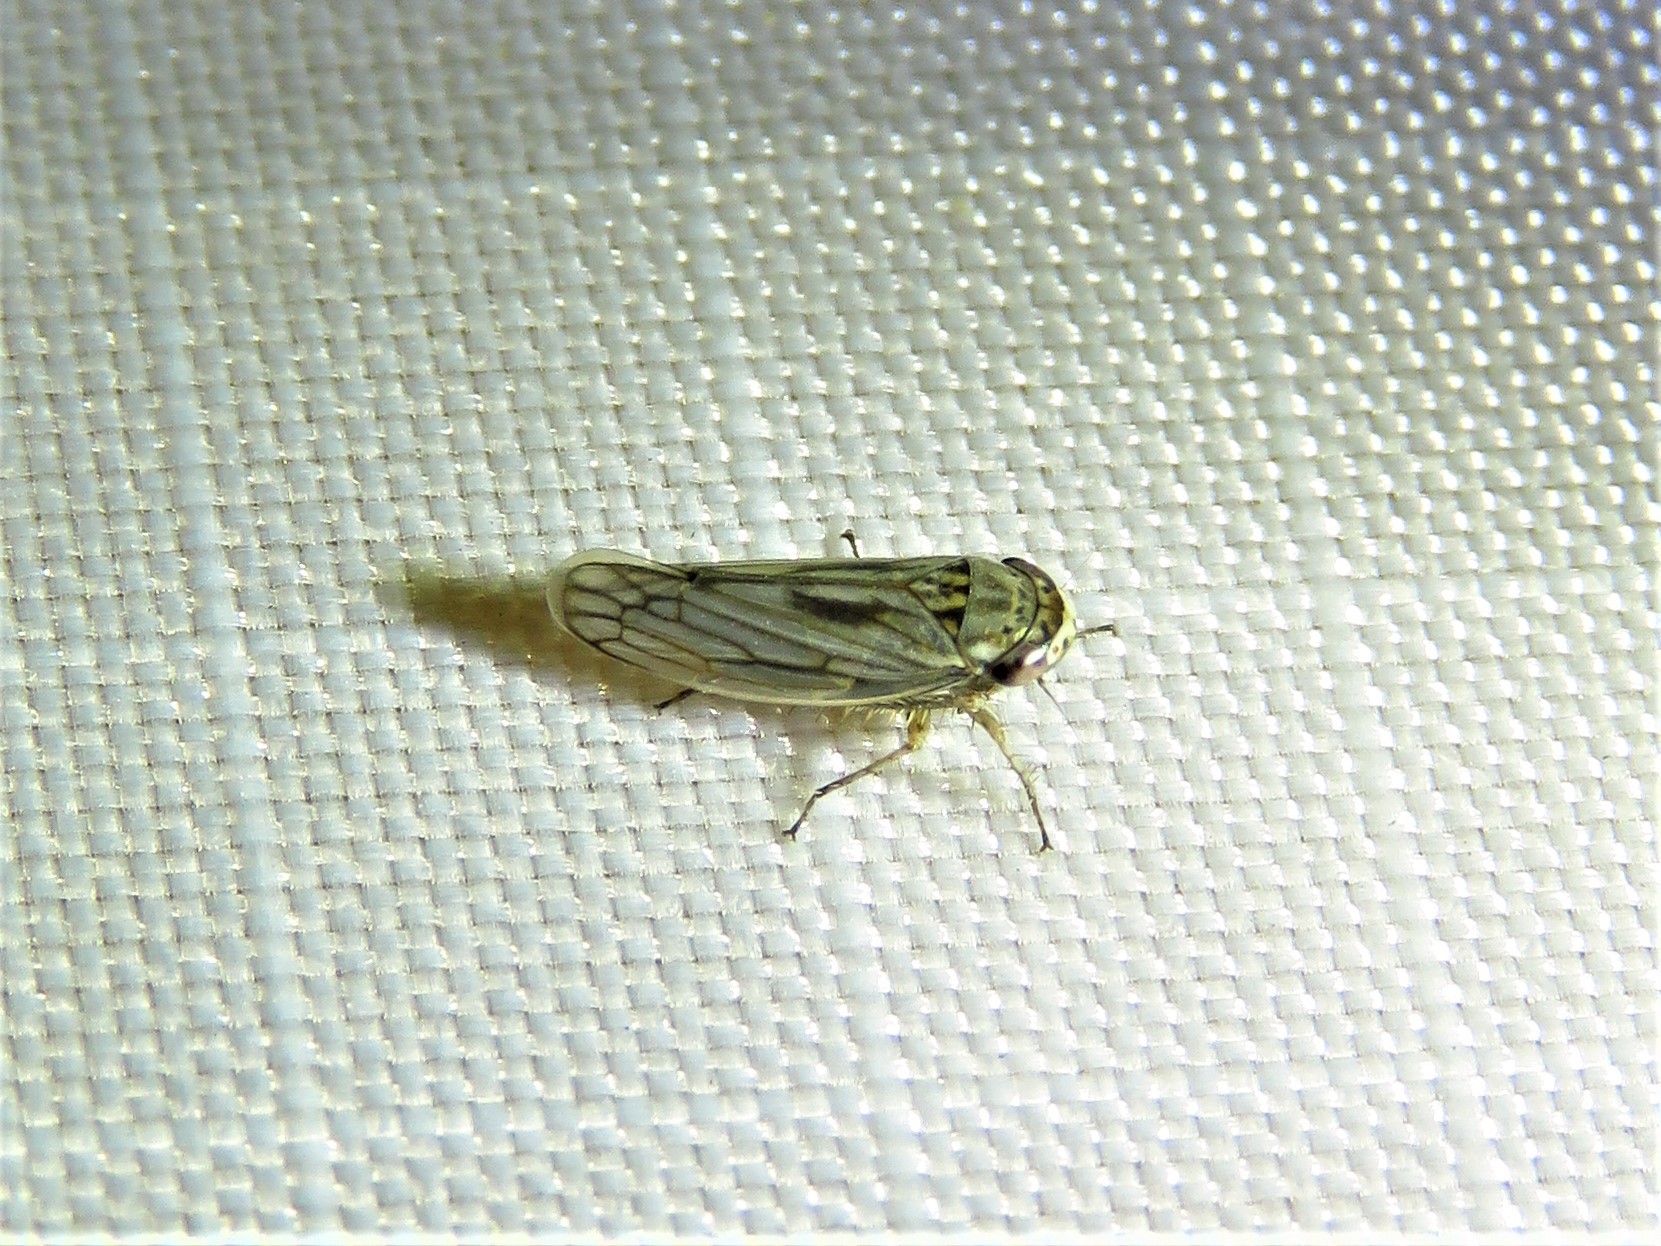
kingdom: Animalia
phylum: Arthropoda
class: Insecta
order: Hemiptera
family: Cicadellidae
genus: Exitianus
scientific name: Exitianus exitiosus
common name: Gray lawn leafhopper
